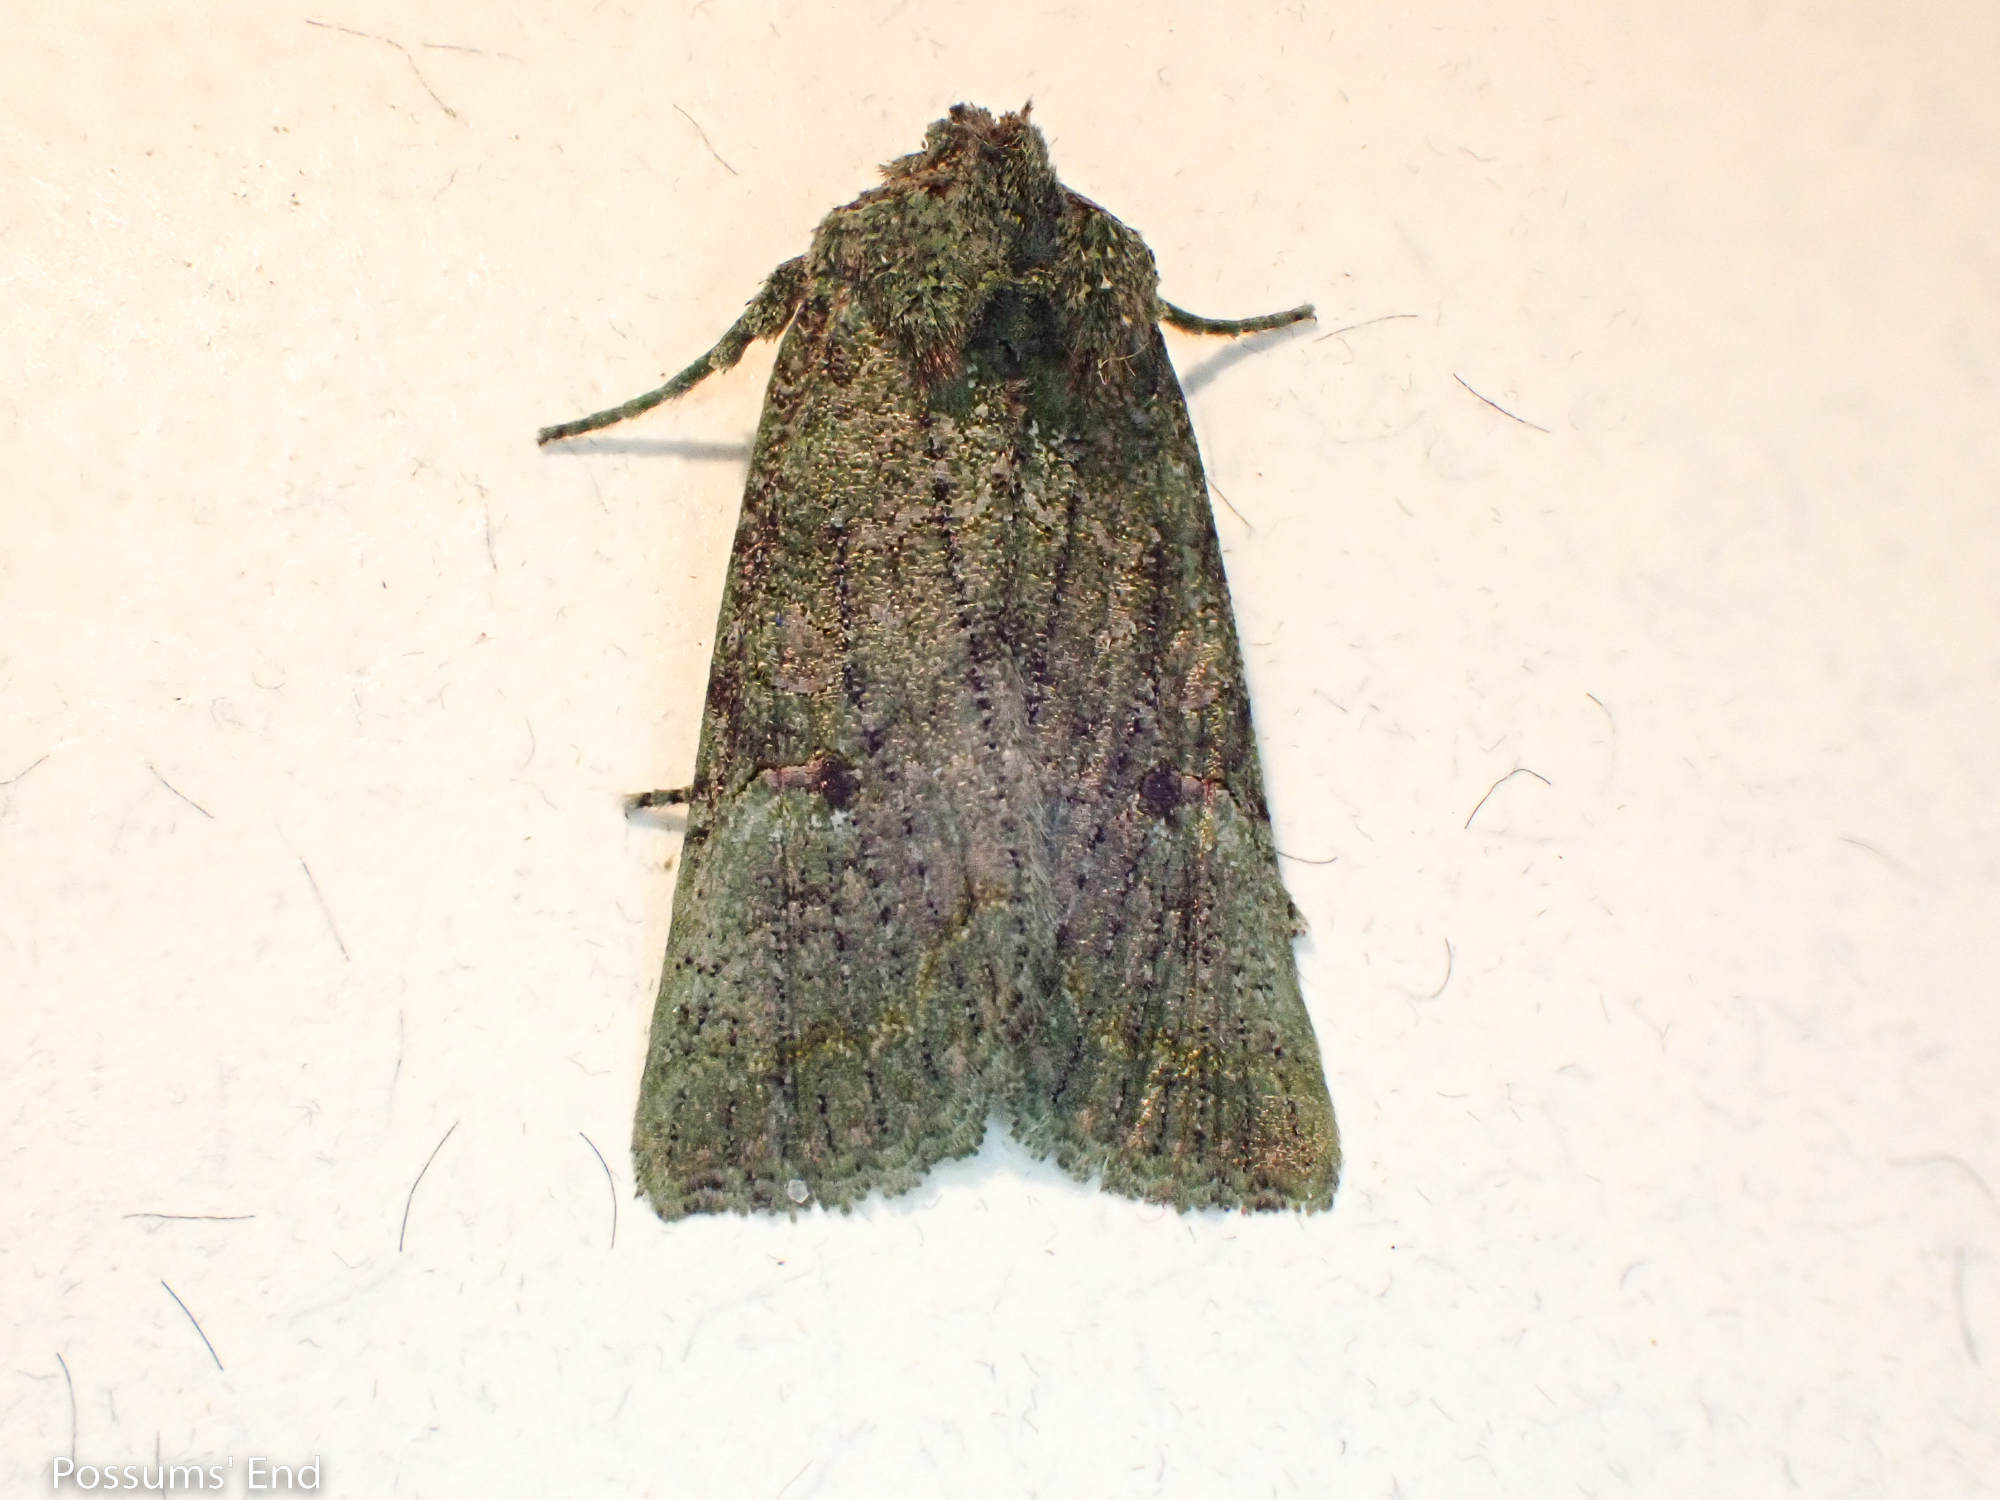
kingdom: Animalia
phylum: Arthropoda
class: Insecta
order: Lepidoptera
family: Noctuidae
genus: Meterana
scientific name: Meterana levis
